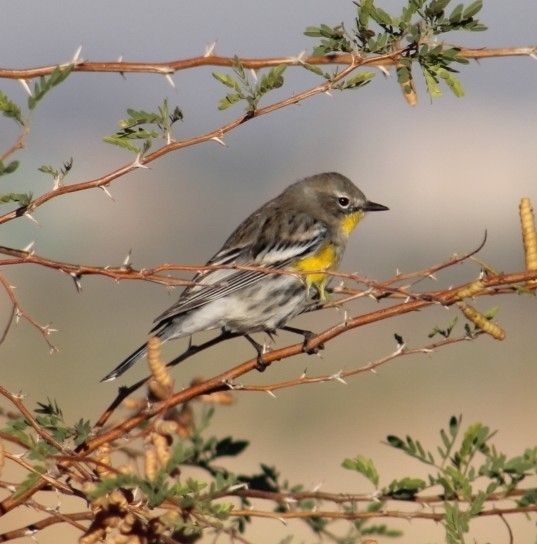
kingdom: Animalia
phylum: Chordata
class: Aves
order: Passeriformes
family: Parulidae
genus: Setophaga
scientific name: Setophaga coronata
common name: Myrtle warbler
